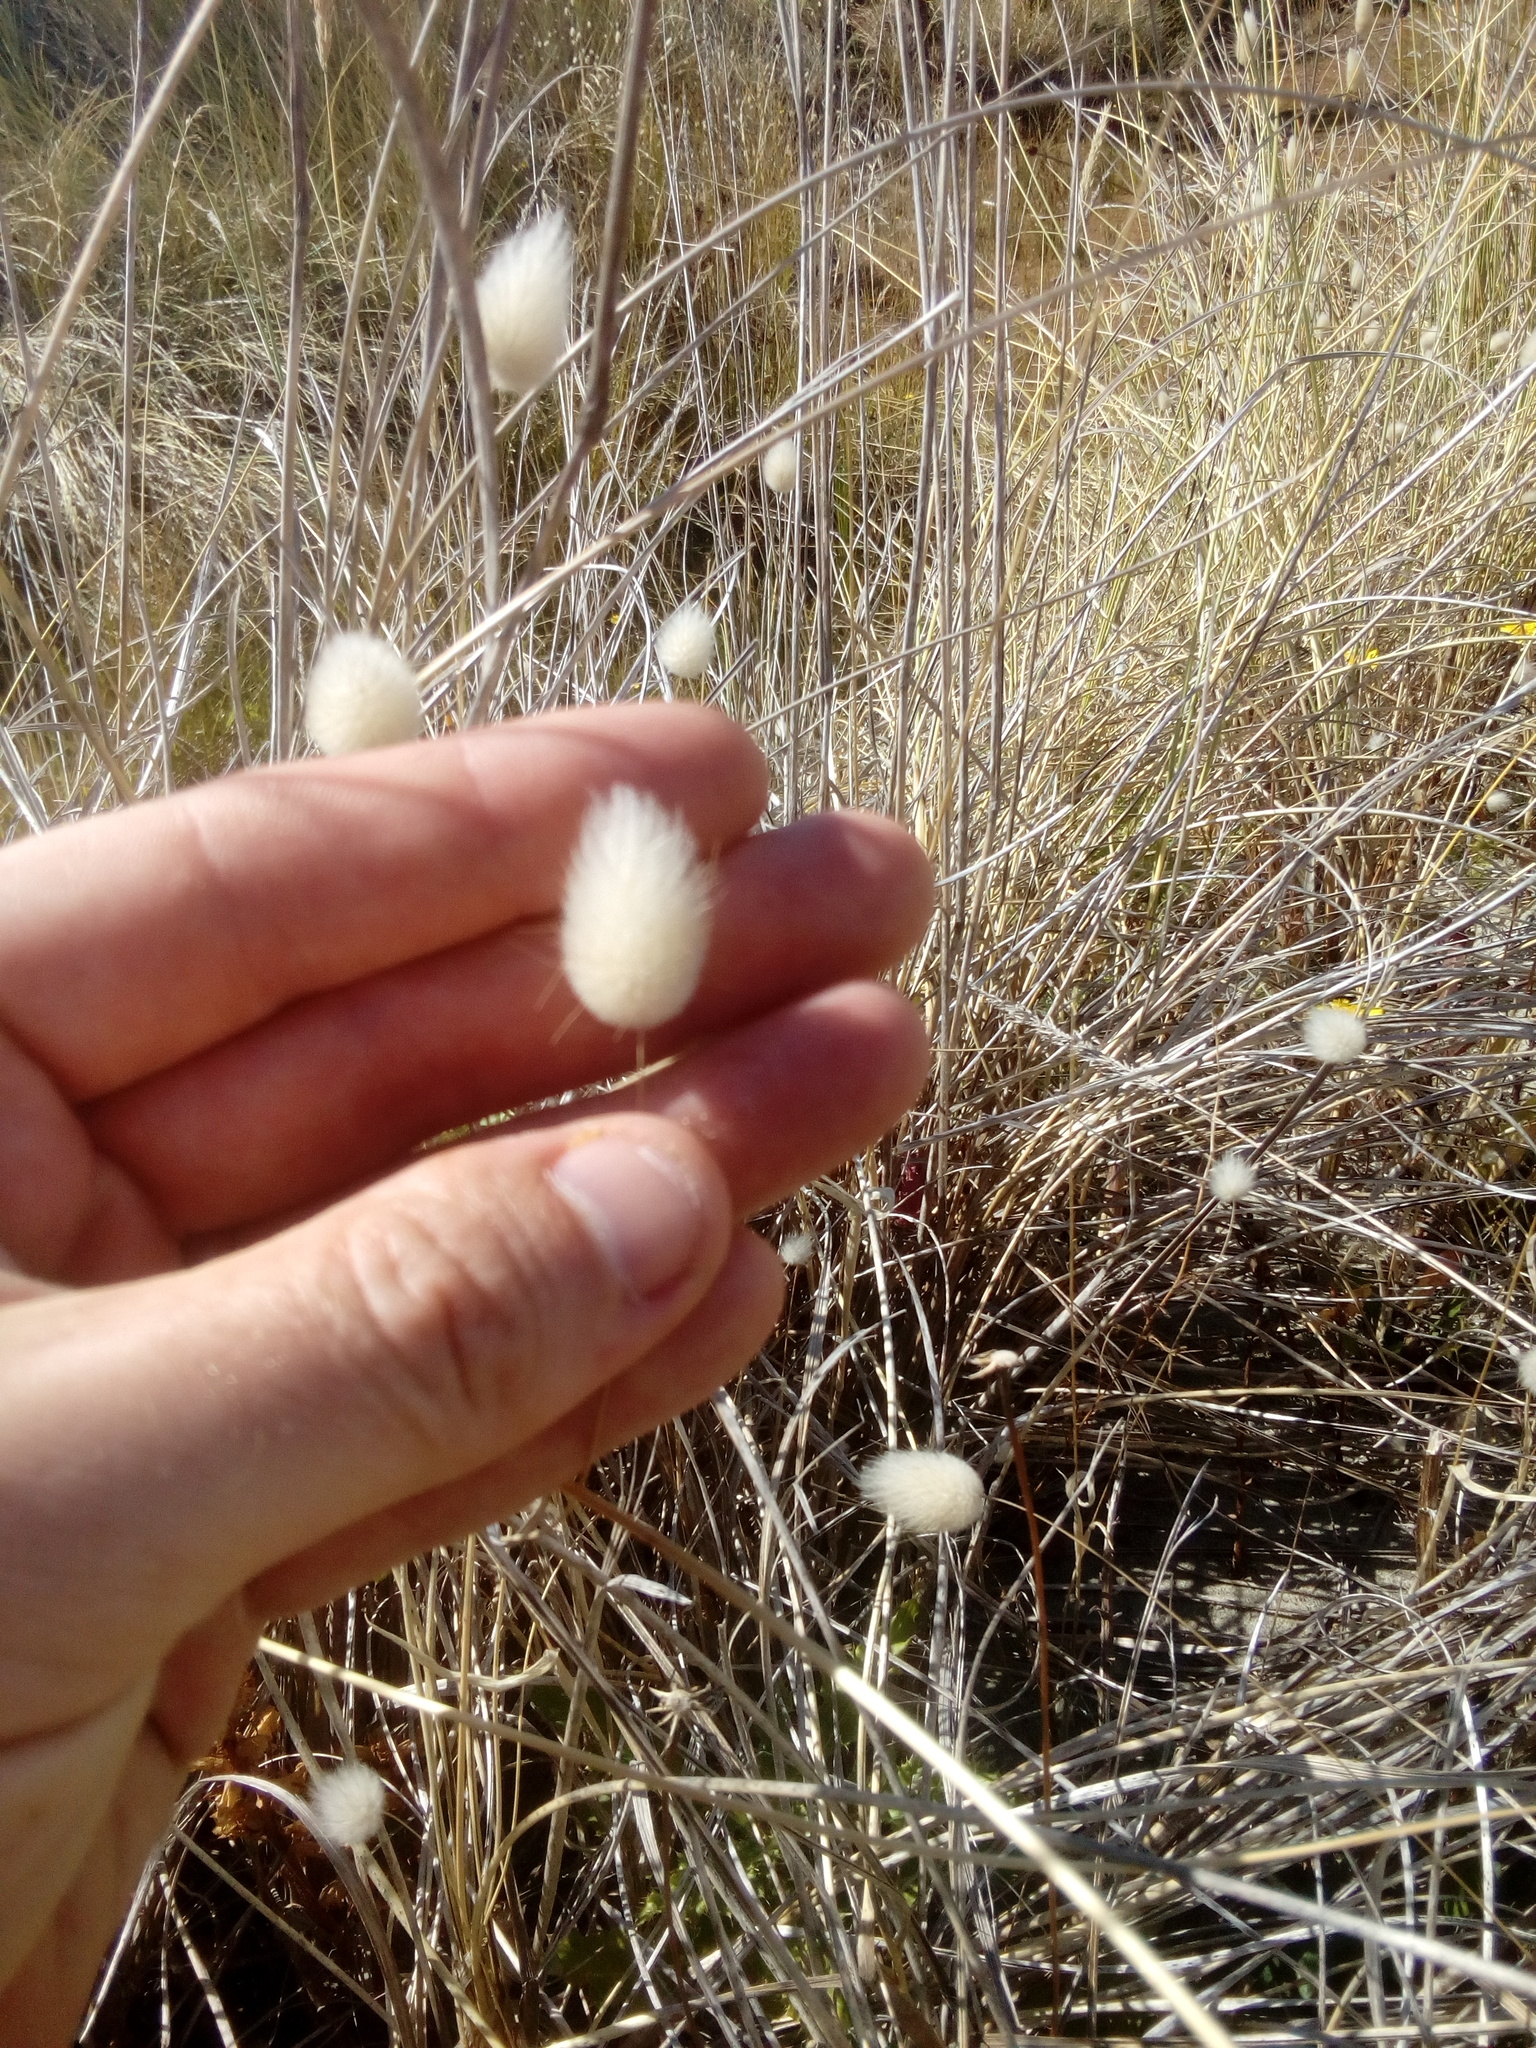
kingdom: Plantae
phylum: Tracheophyta
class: Liliopsida
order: Poales
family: Poaceae
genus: Lagurus
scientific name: Lagurus ovatus
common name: Hare's-tail
